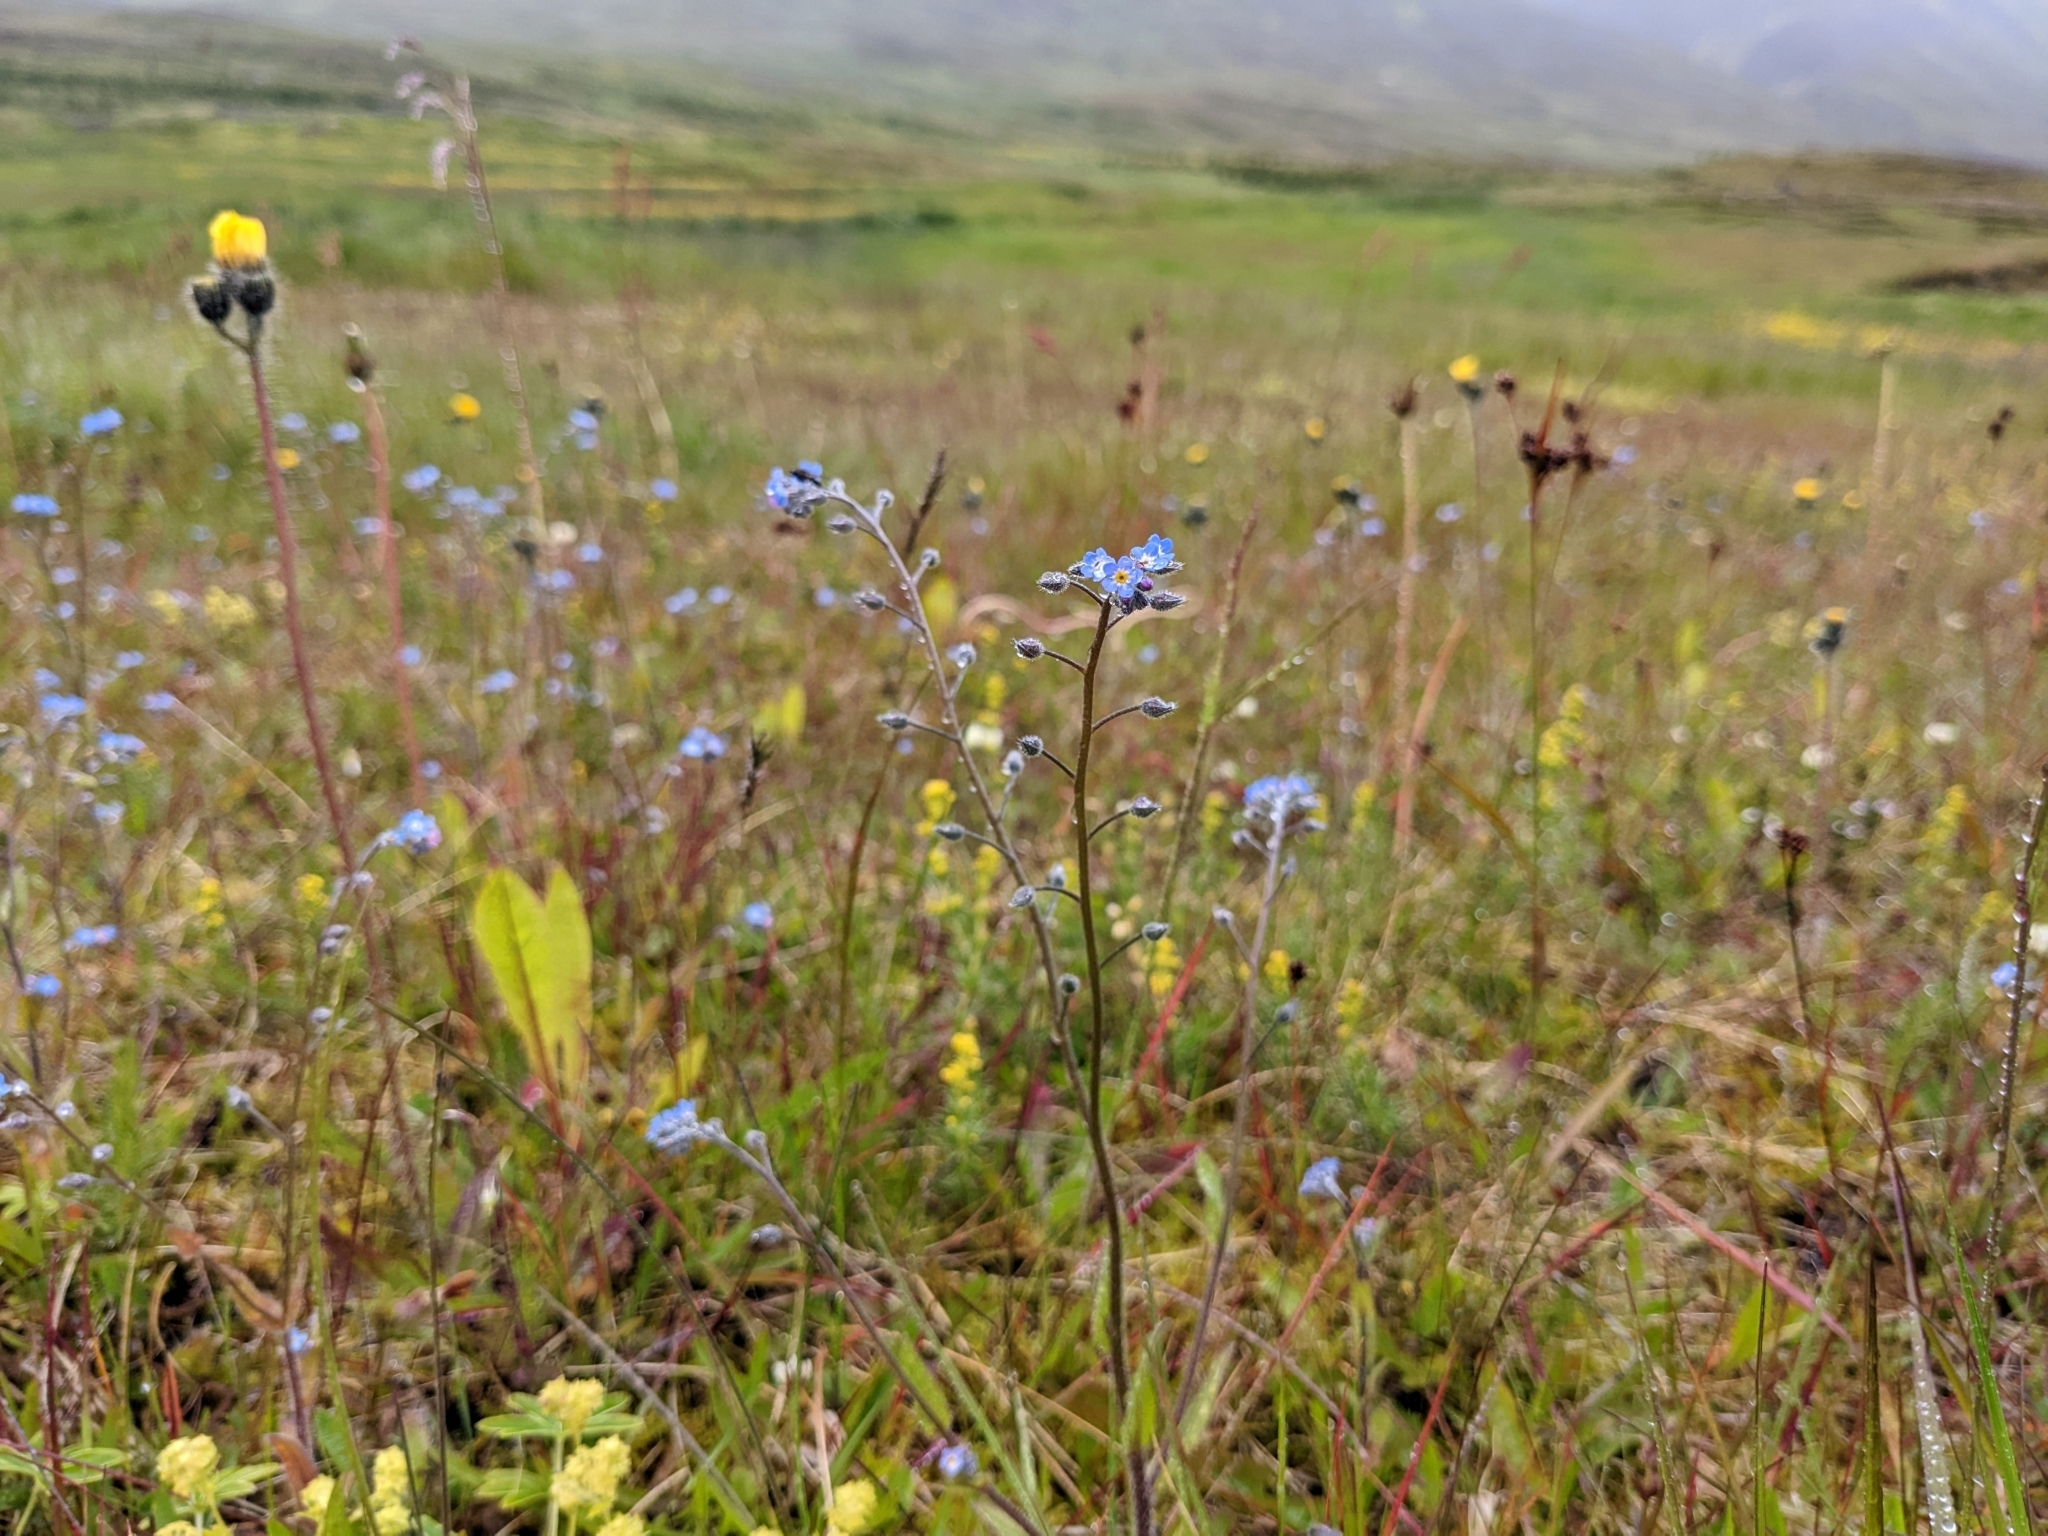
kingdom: Plantae
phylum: Tracheophyta
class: Magnoliopsida
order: Boraginales
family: Boraginaceae
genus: Myosotis
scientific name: Myosotis arvensis
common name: Field forget-me-not
